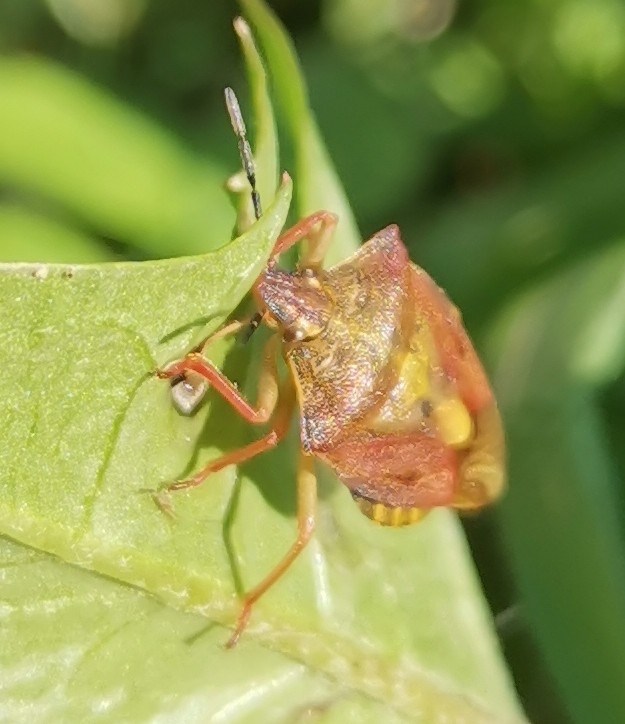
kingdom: Animalia
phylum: Arthropoda
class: Insecta
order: Hemiptera
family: Pentatomidae
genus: Carpocoris
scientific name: Carpocoris purpureipennis
